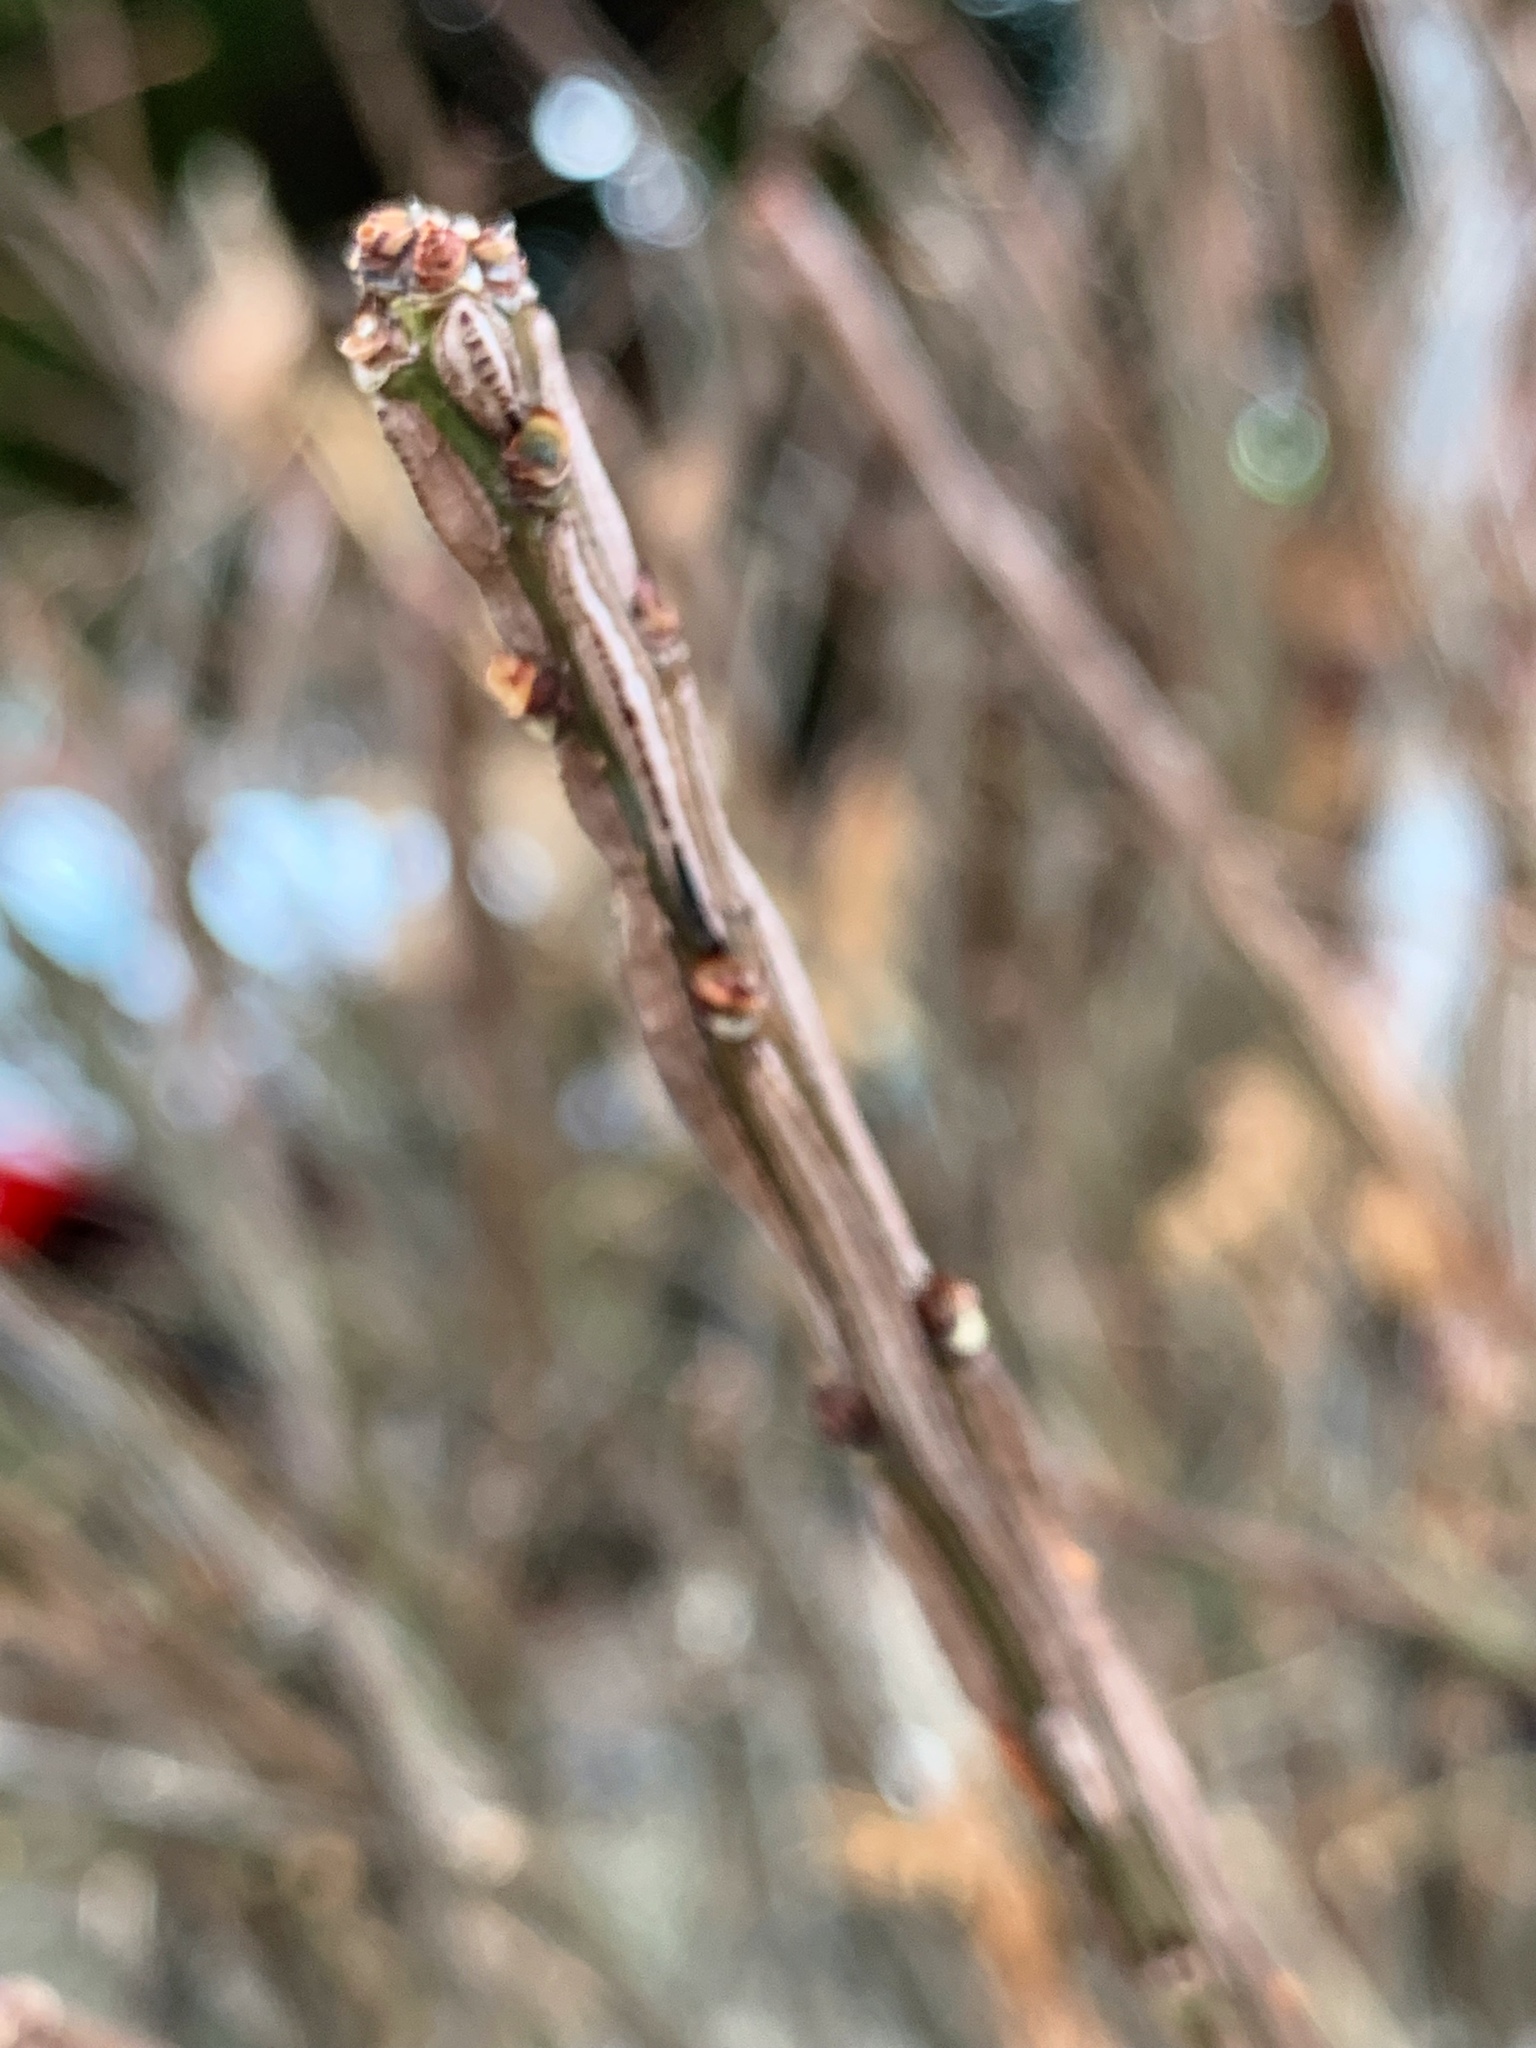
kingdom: Plantae
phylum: Tracheophyta
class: Magnoliopsida
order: Celastrales
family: Celastraceae
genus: Euonymus
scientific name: Euonymus alatus
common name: Winged euonymus
